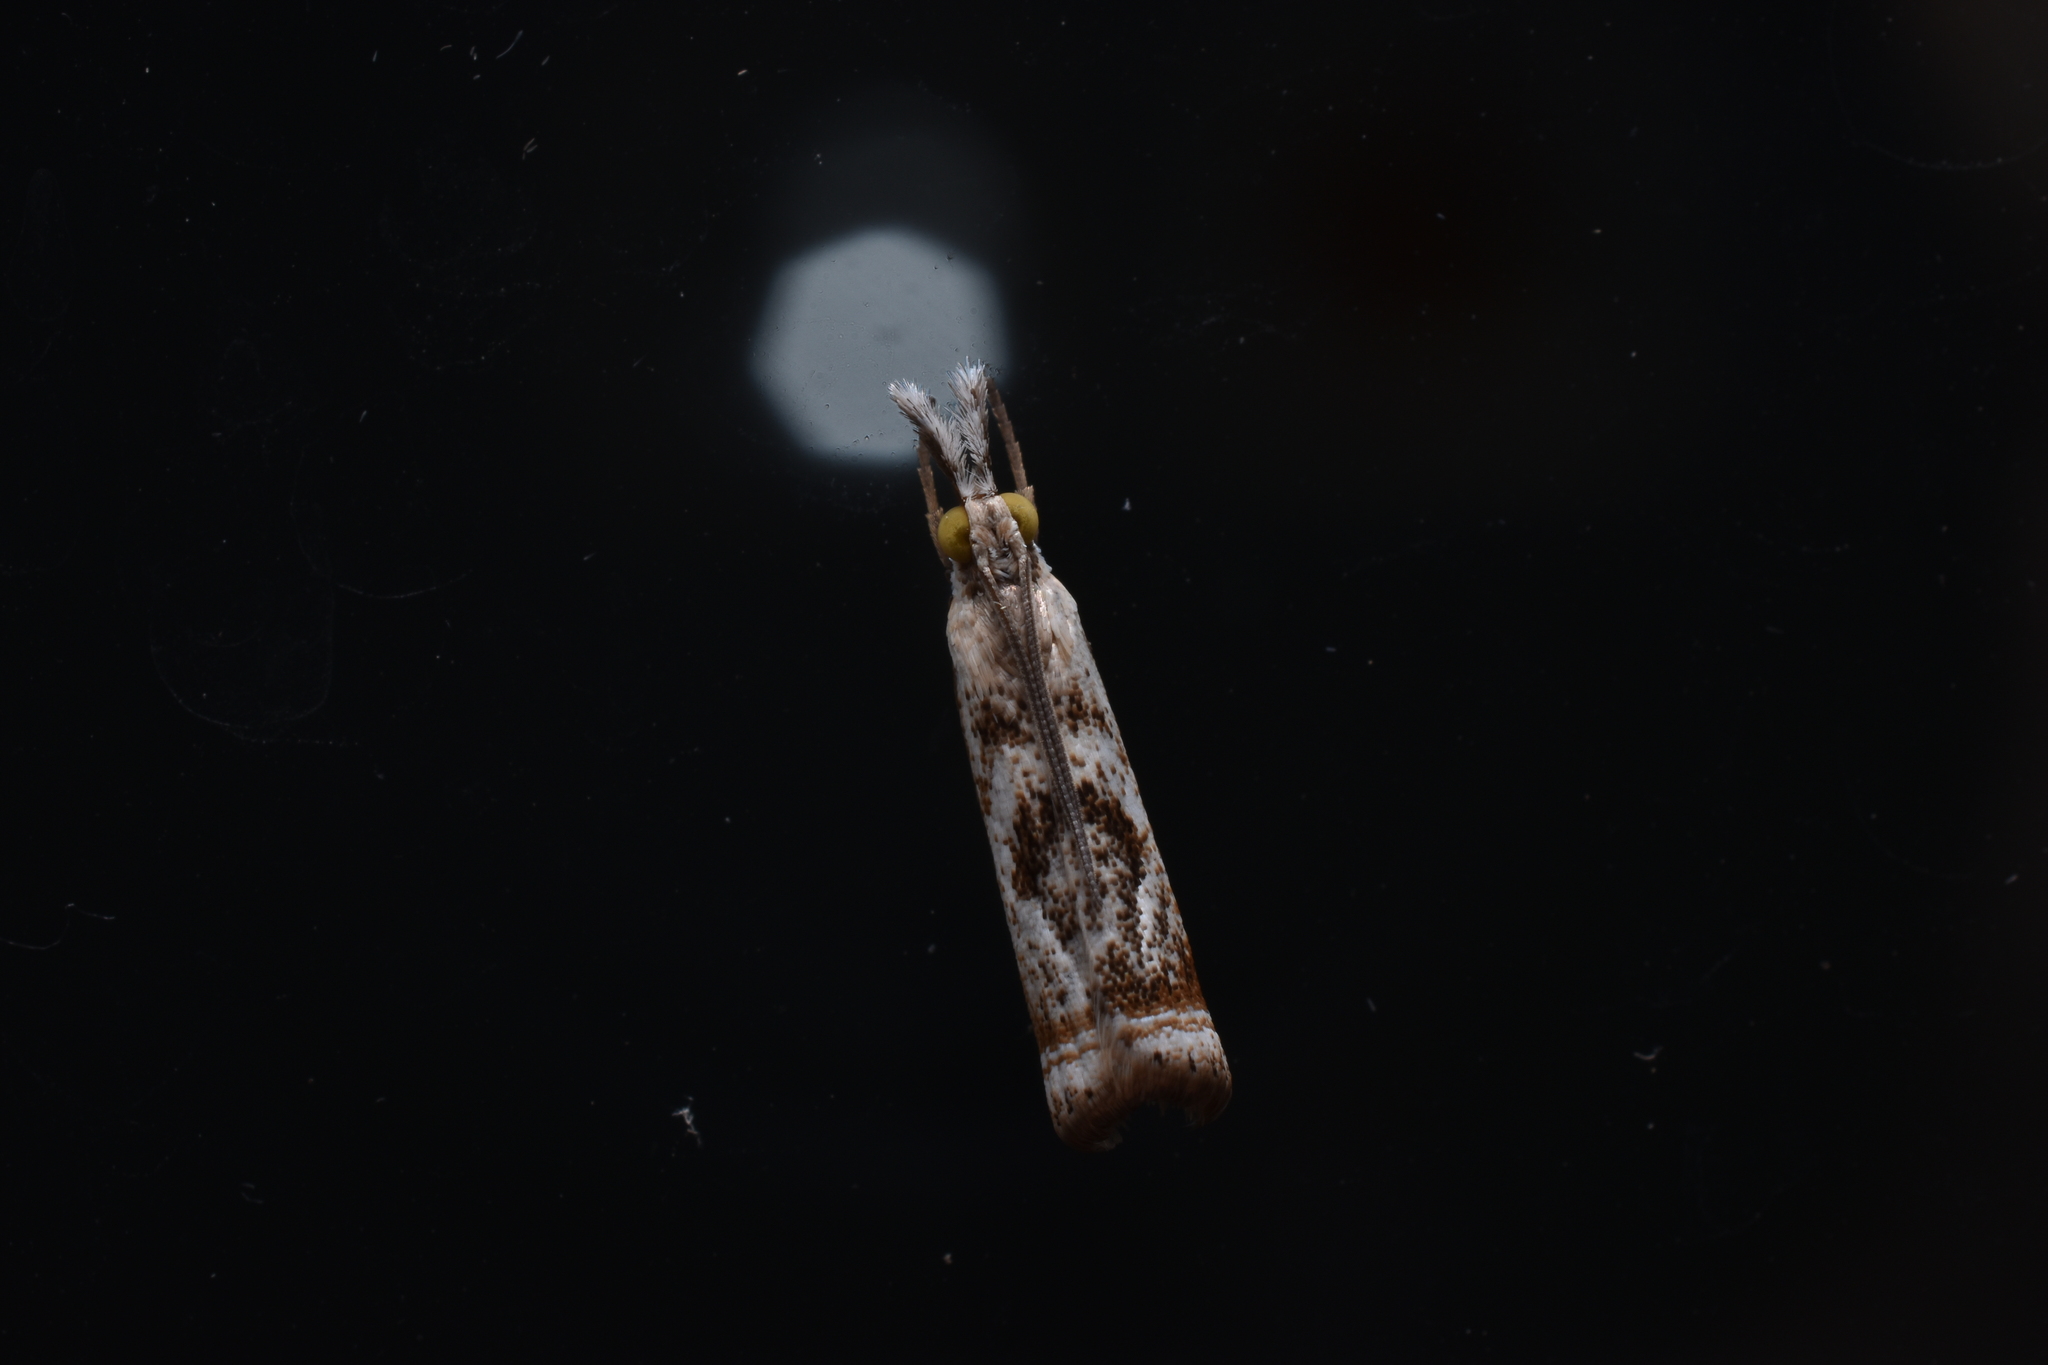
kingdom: Animalia
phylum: Arthropoda
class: Insecta
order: Lepidoptera
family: Crambidae
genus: Microcrambus
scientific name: Microcrambus elegans
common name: Elegant grass-veneer
